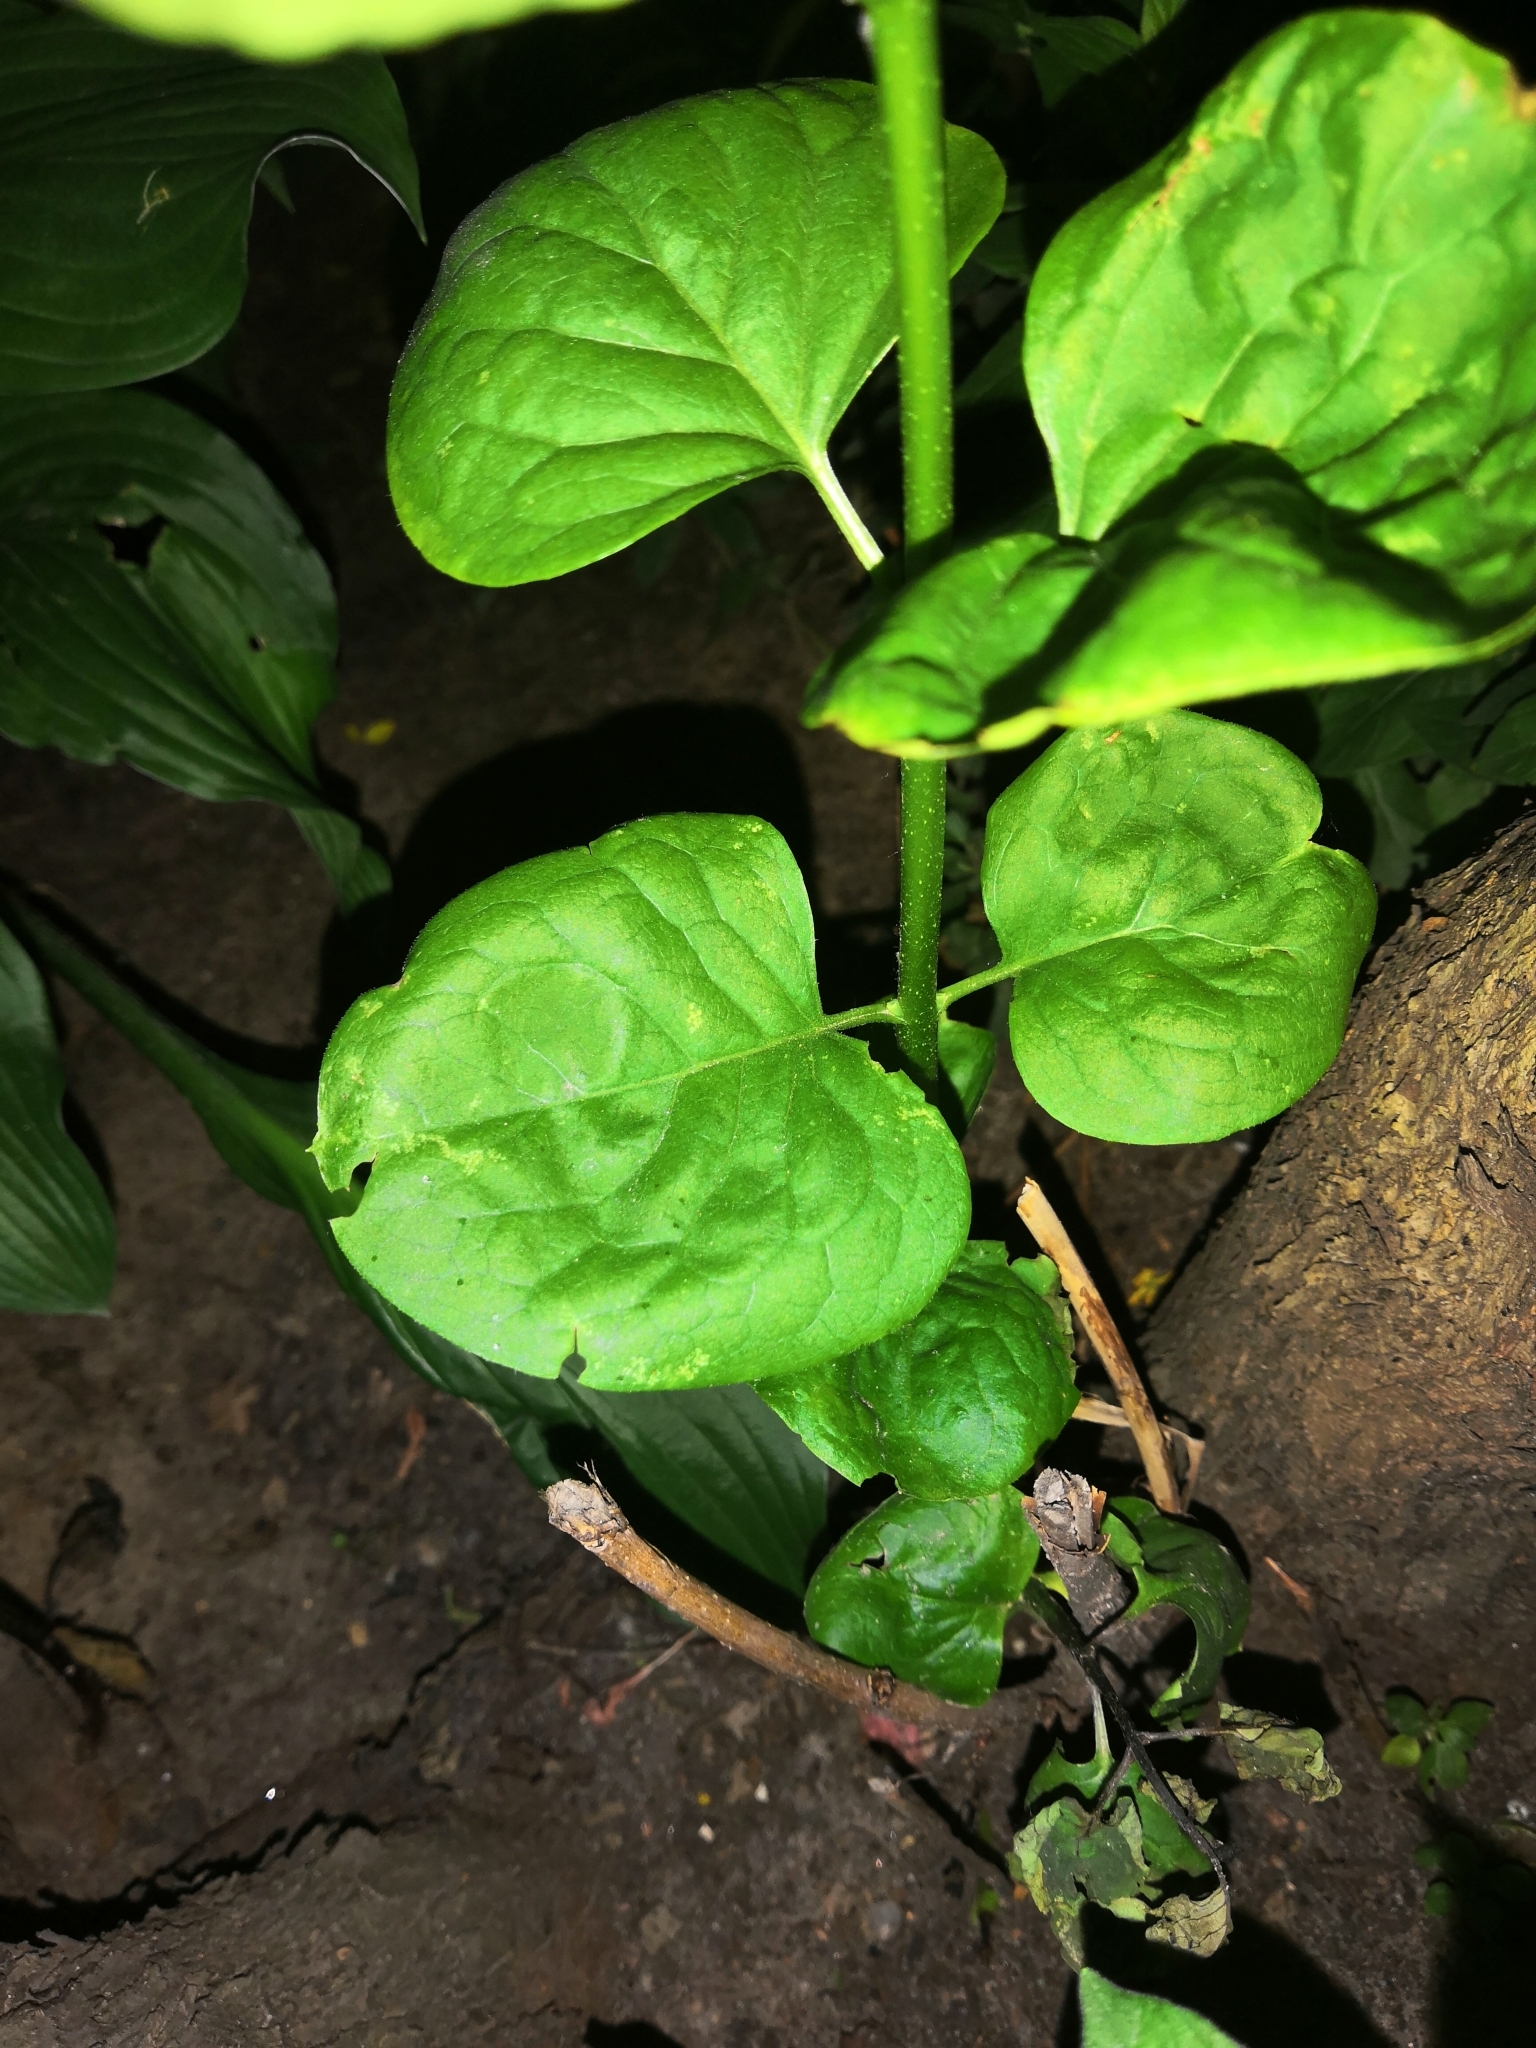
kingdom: Plantae
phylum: Tracheophyta
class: Magnoliopsida
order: Lamiales
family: Oleaceae
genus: Syringa
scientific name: Syringa vulgaris
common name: Common lilac
